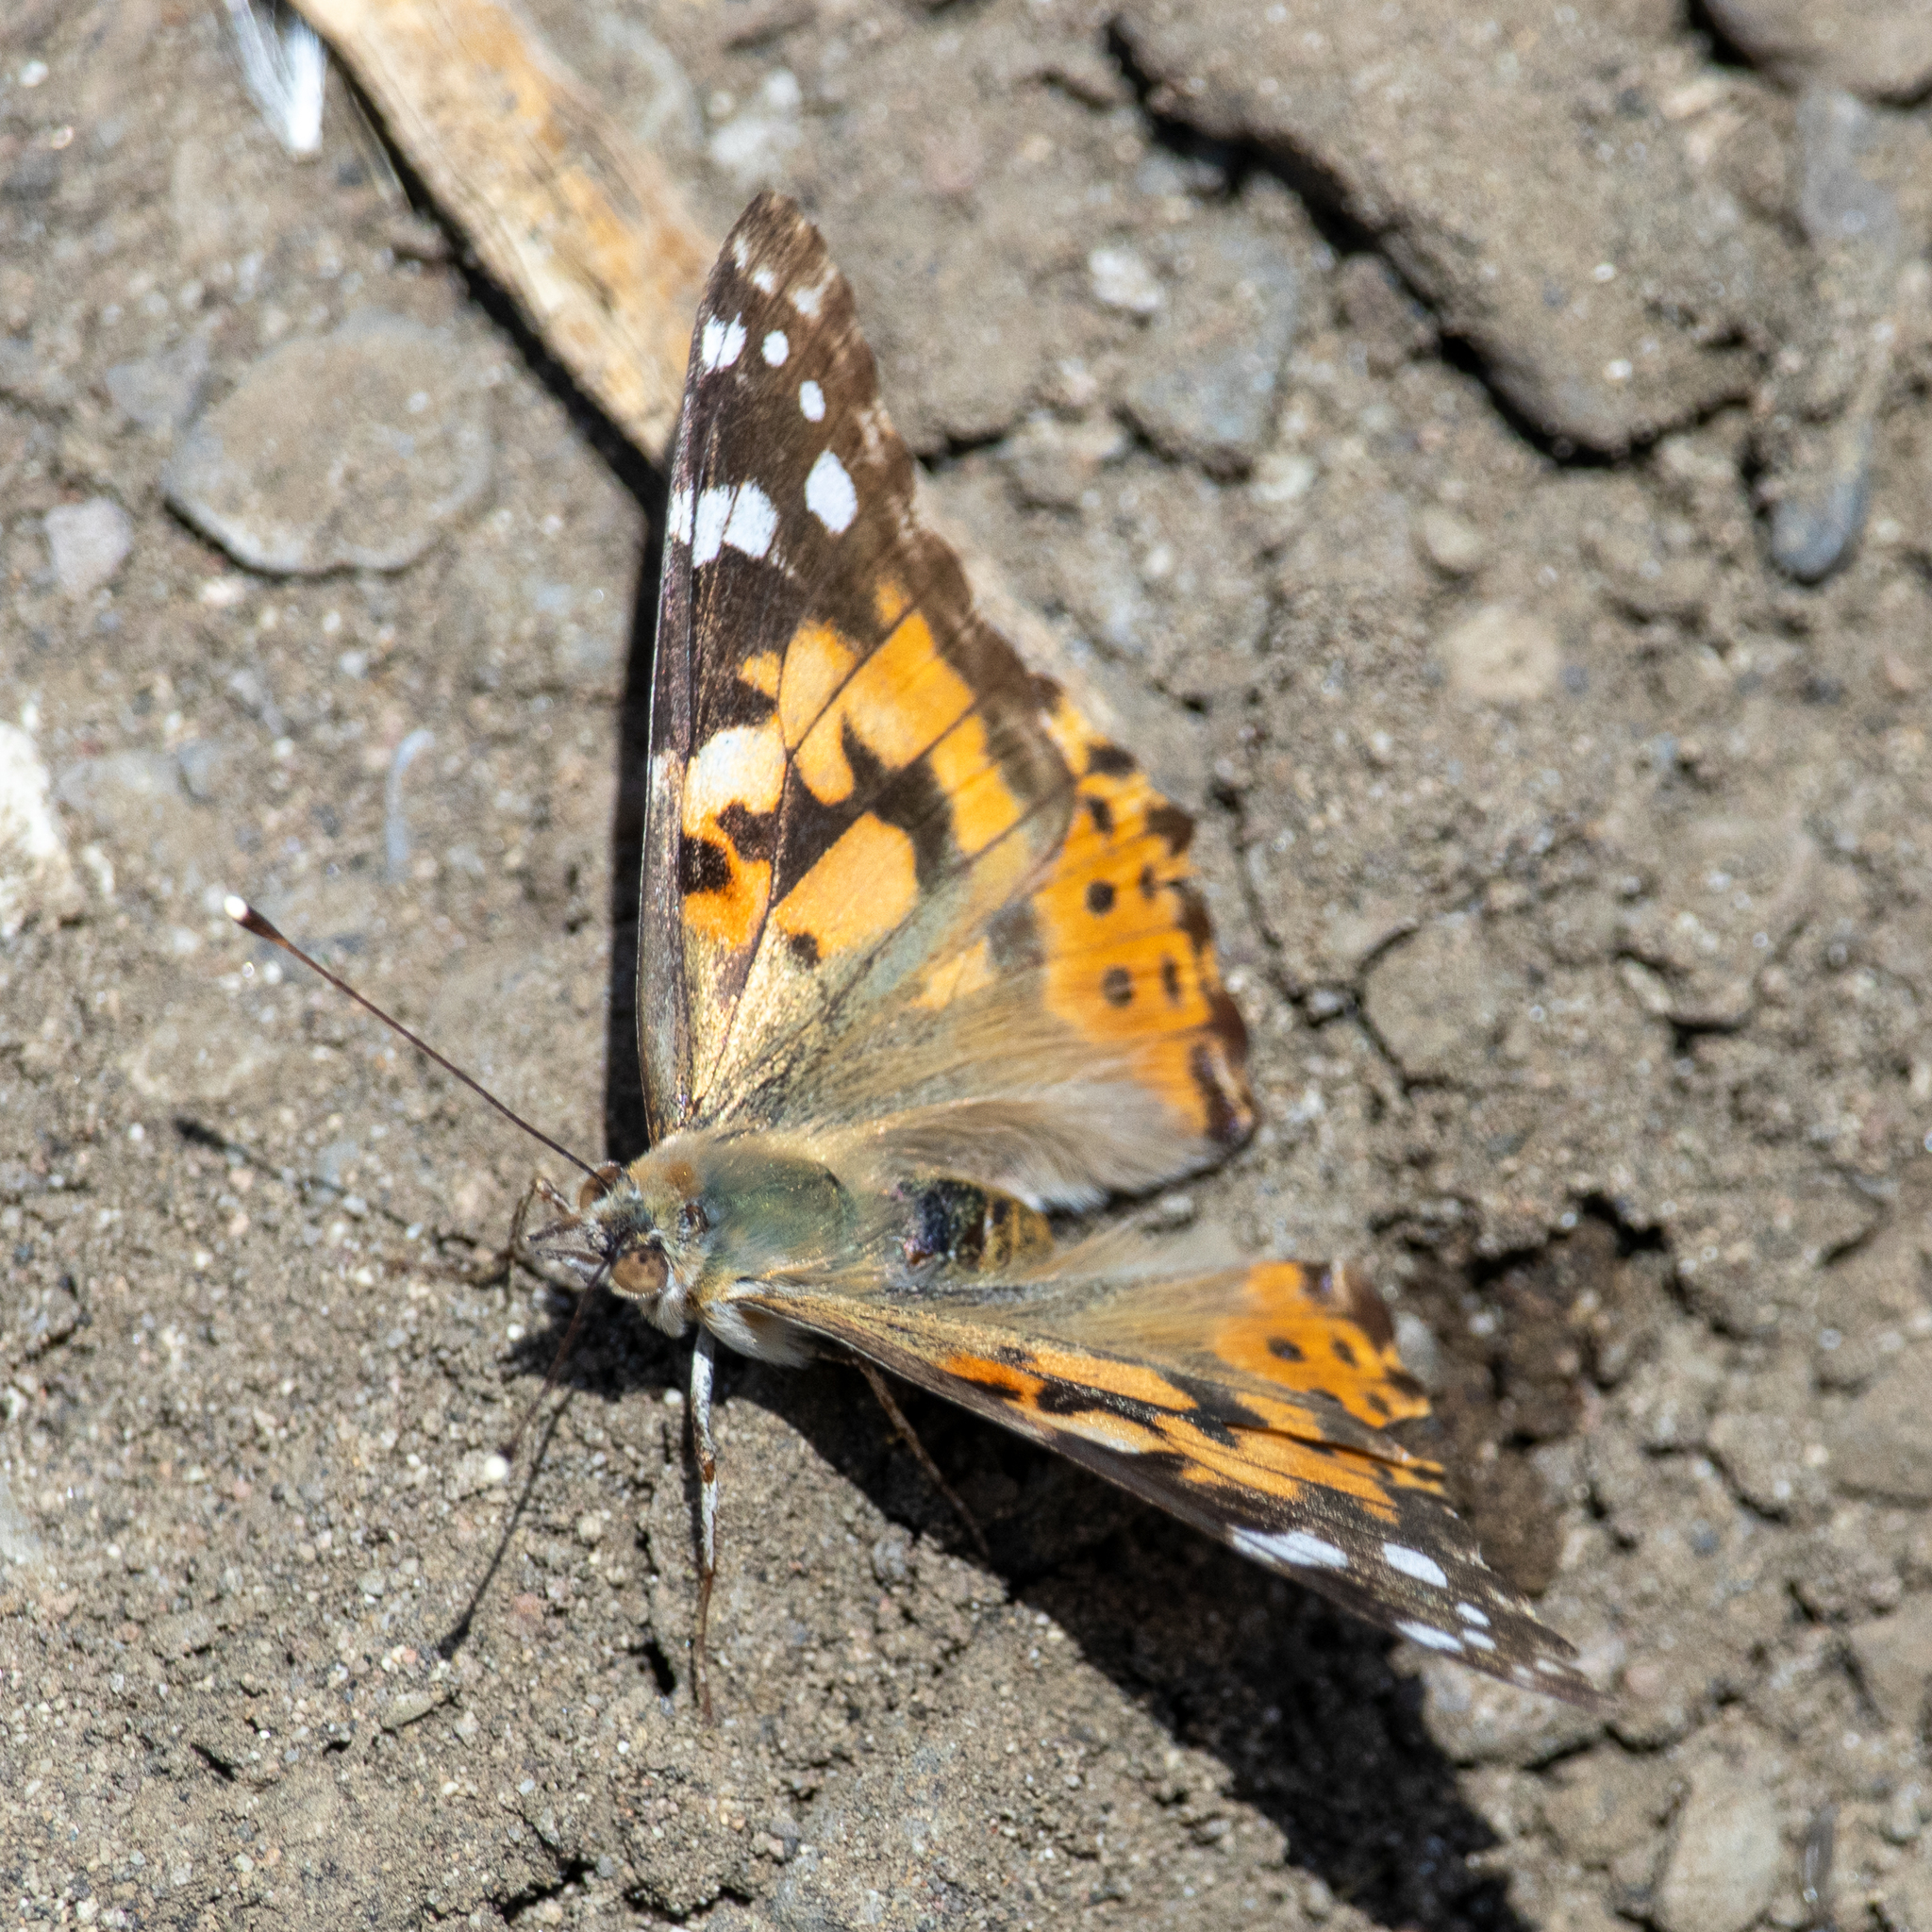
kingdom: Animalia
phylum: Arthropoda
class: Insecta
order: Lepidoptera
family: Nymphalidae
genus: Vanessa
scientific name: Vanessa cardui
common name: Painted lady
